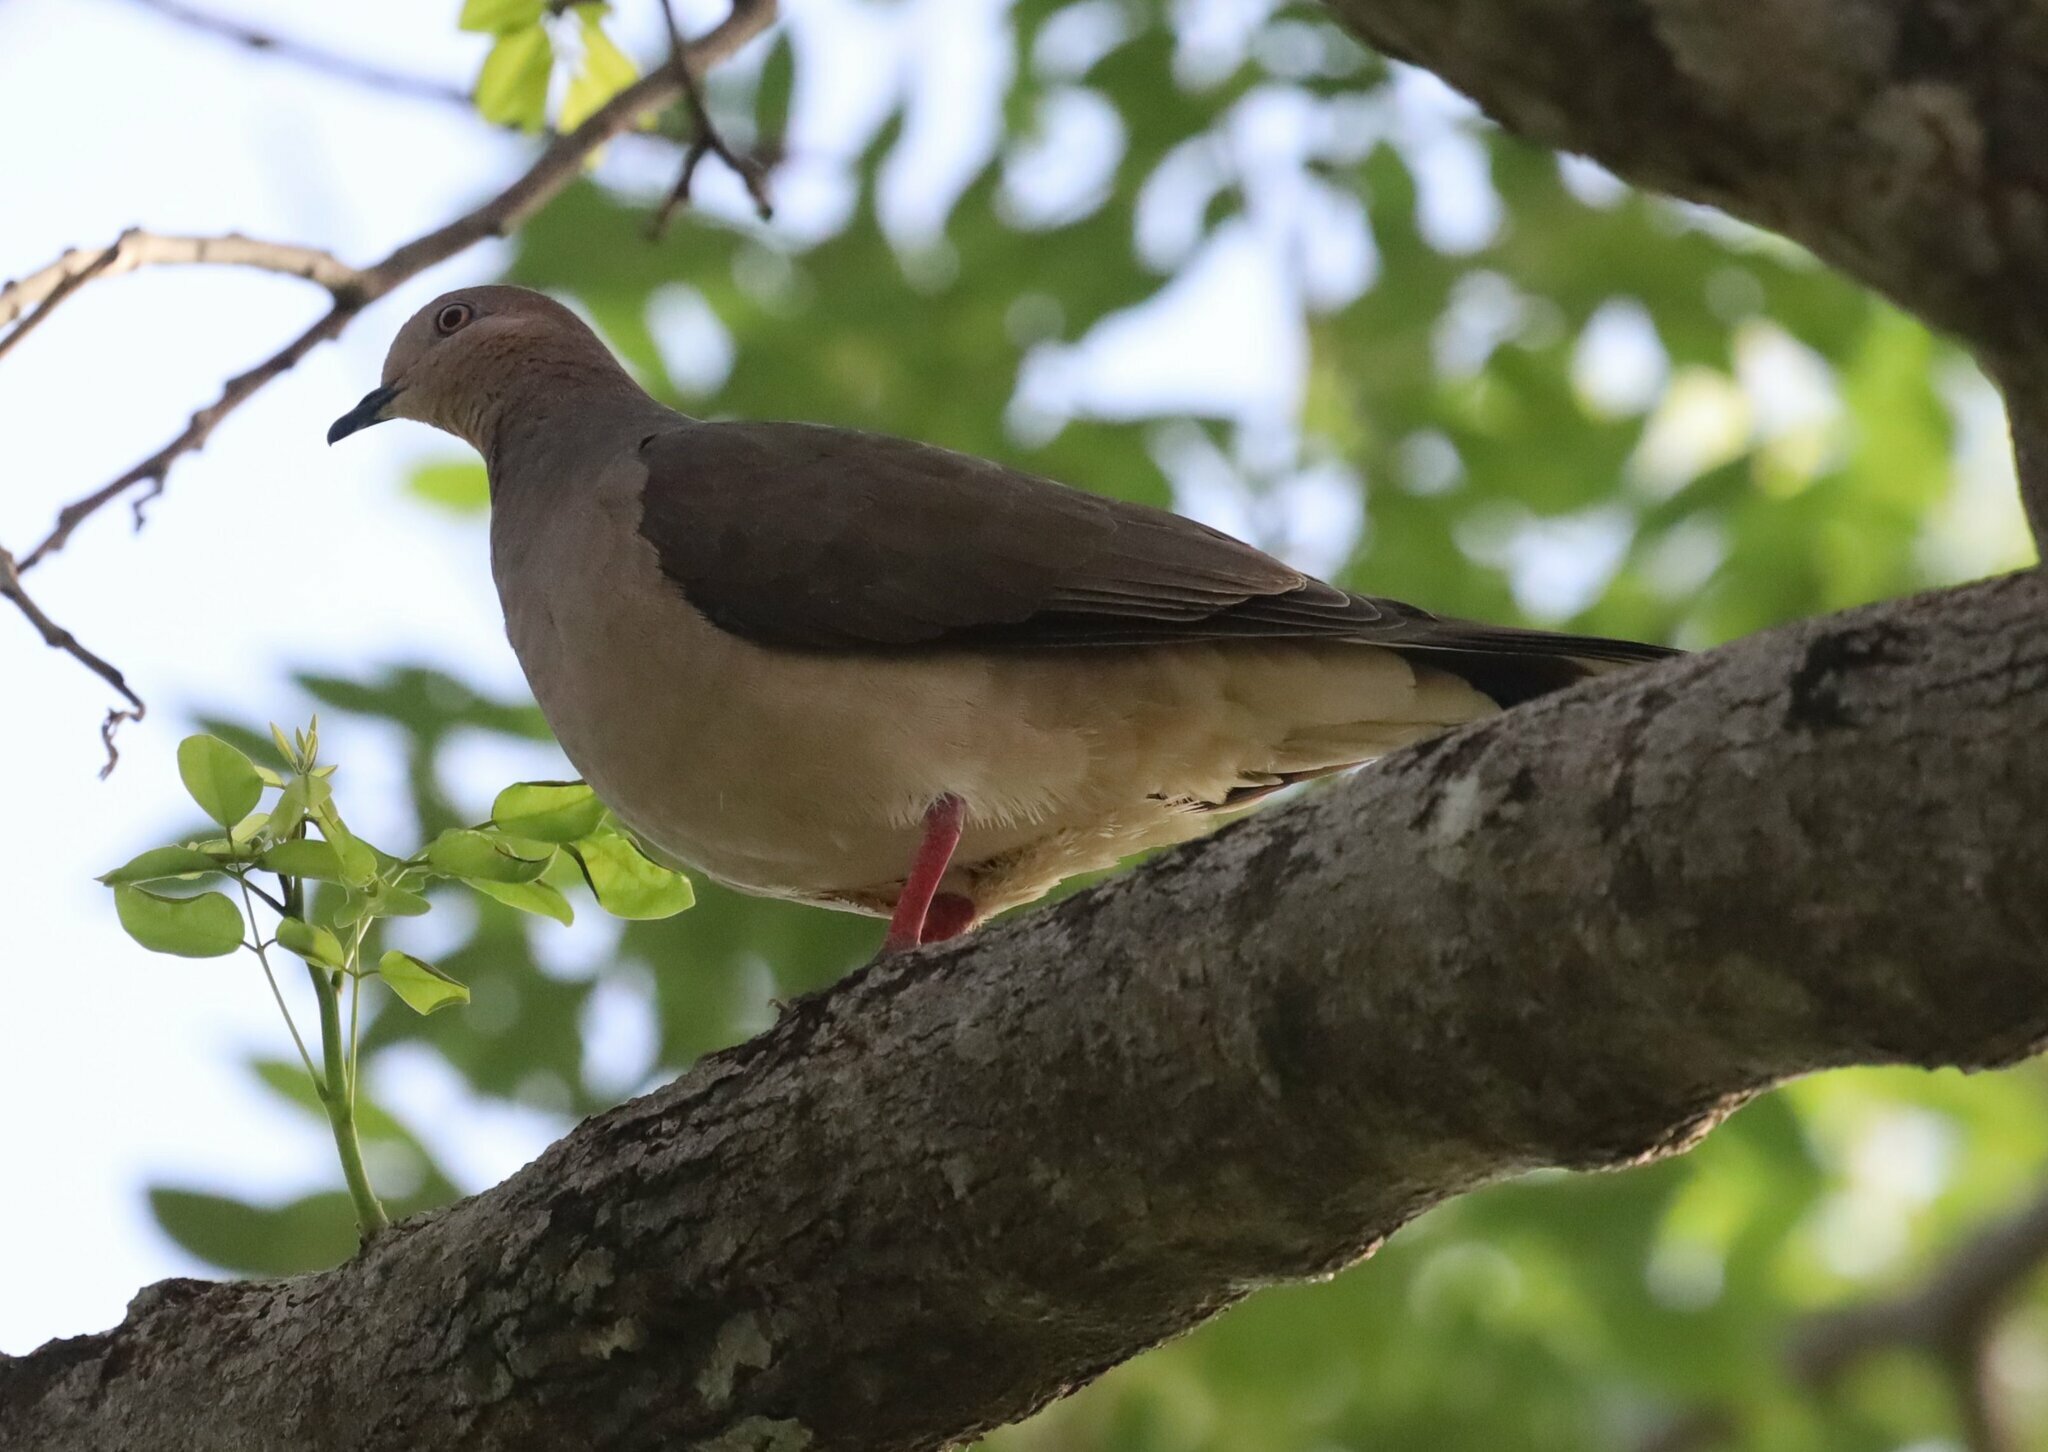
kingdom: Animalia
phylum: Chordata
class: Aves
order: Columbiformes
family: Columbidae
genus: Leptotila
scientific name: Leptotila verreauxi
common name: White-tipped dove
